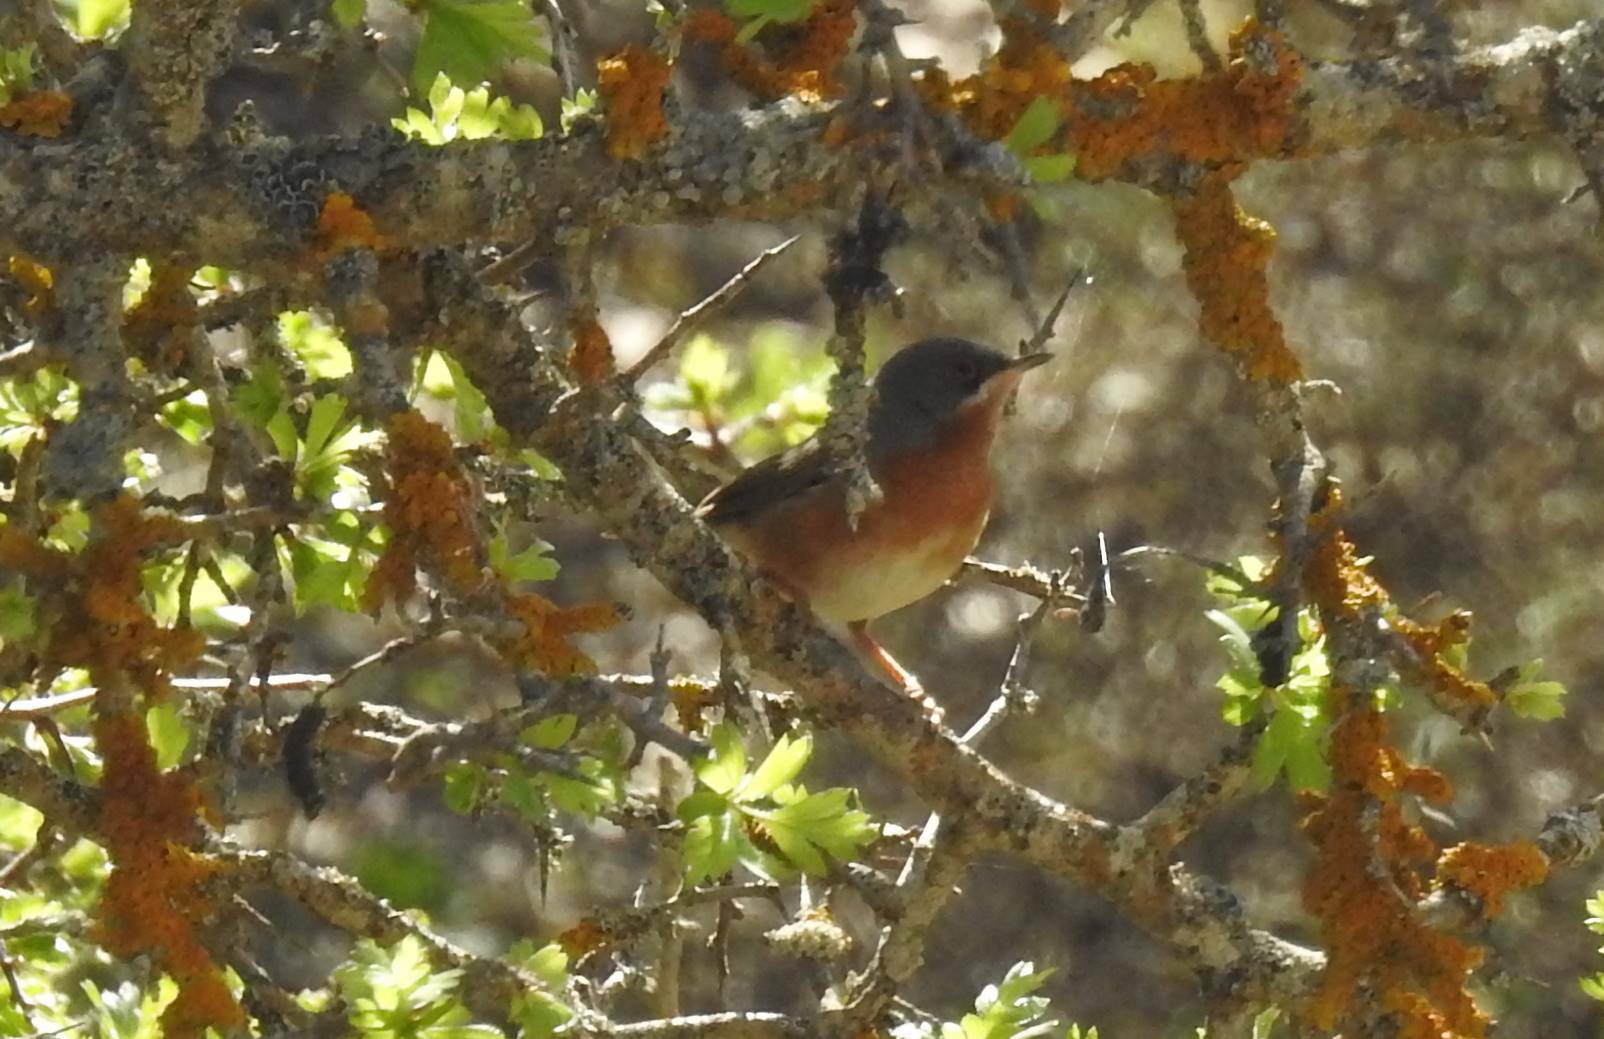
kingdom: Animalia
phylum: Chordata
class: Aves
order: Passeriformes
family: Sylviidae
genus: Curruca
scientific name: Curruca iberiae
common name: Western subalpine warbler
